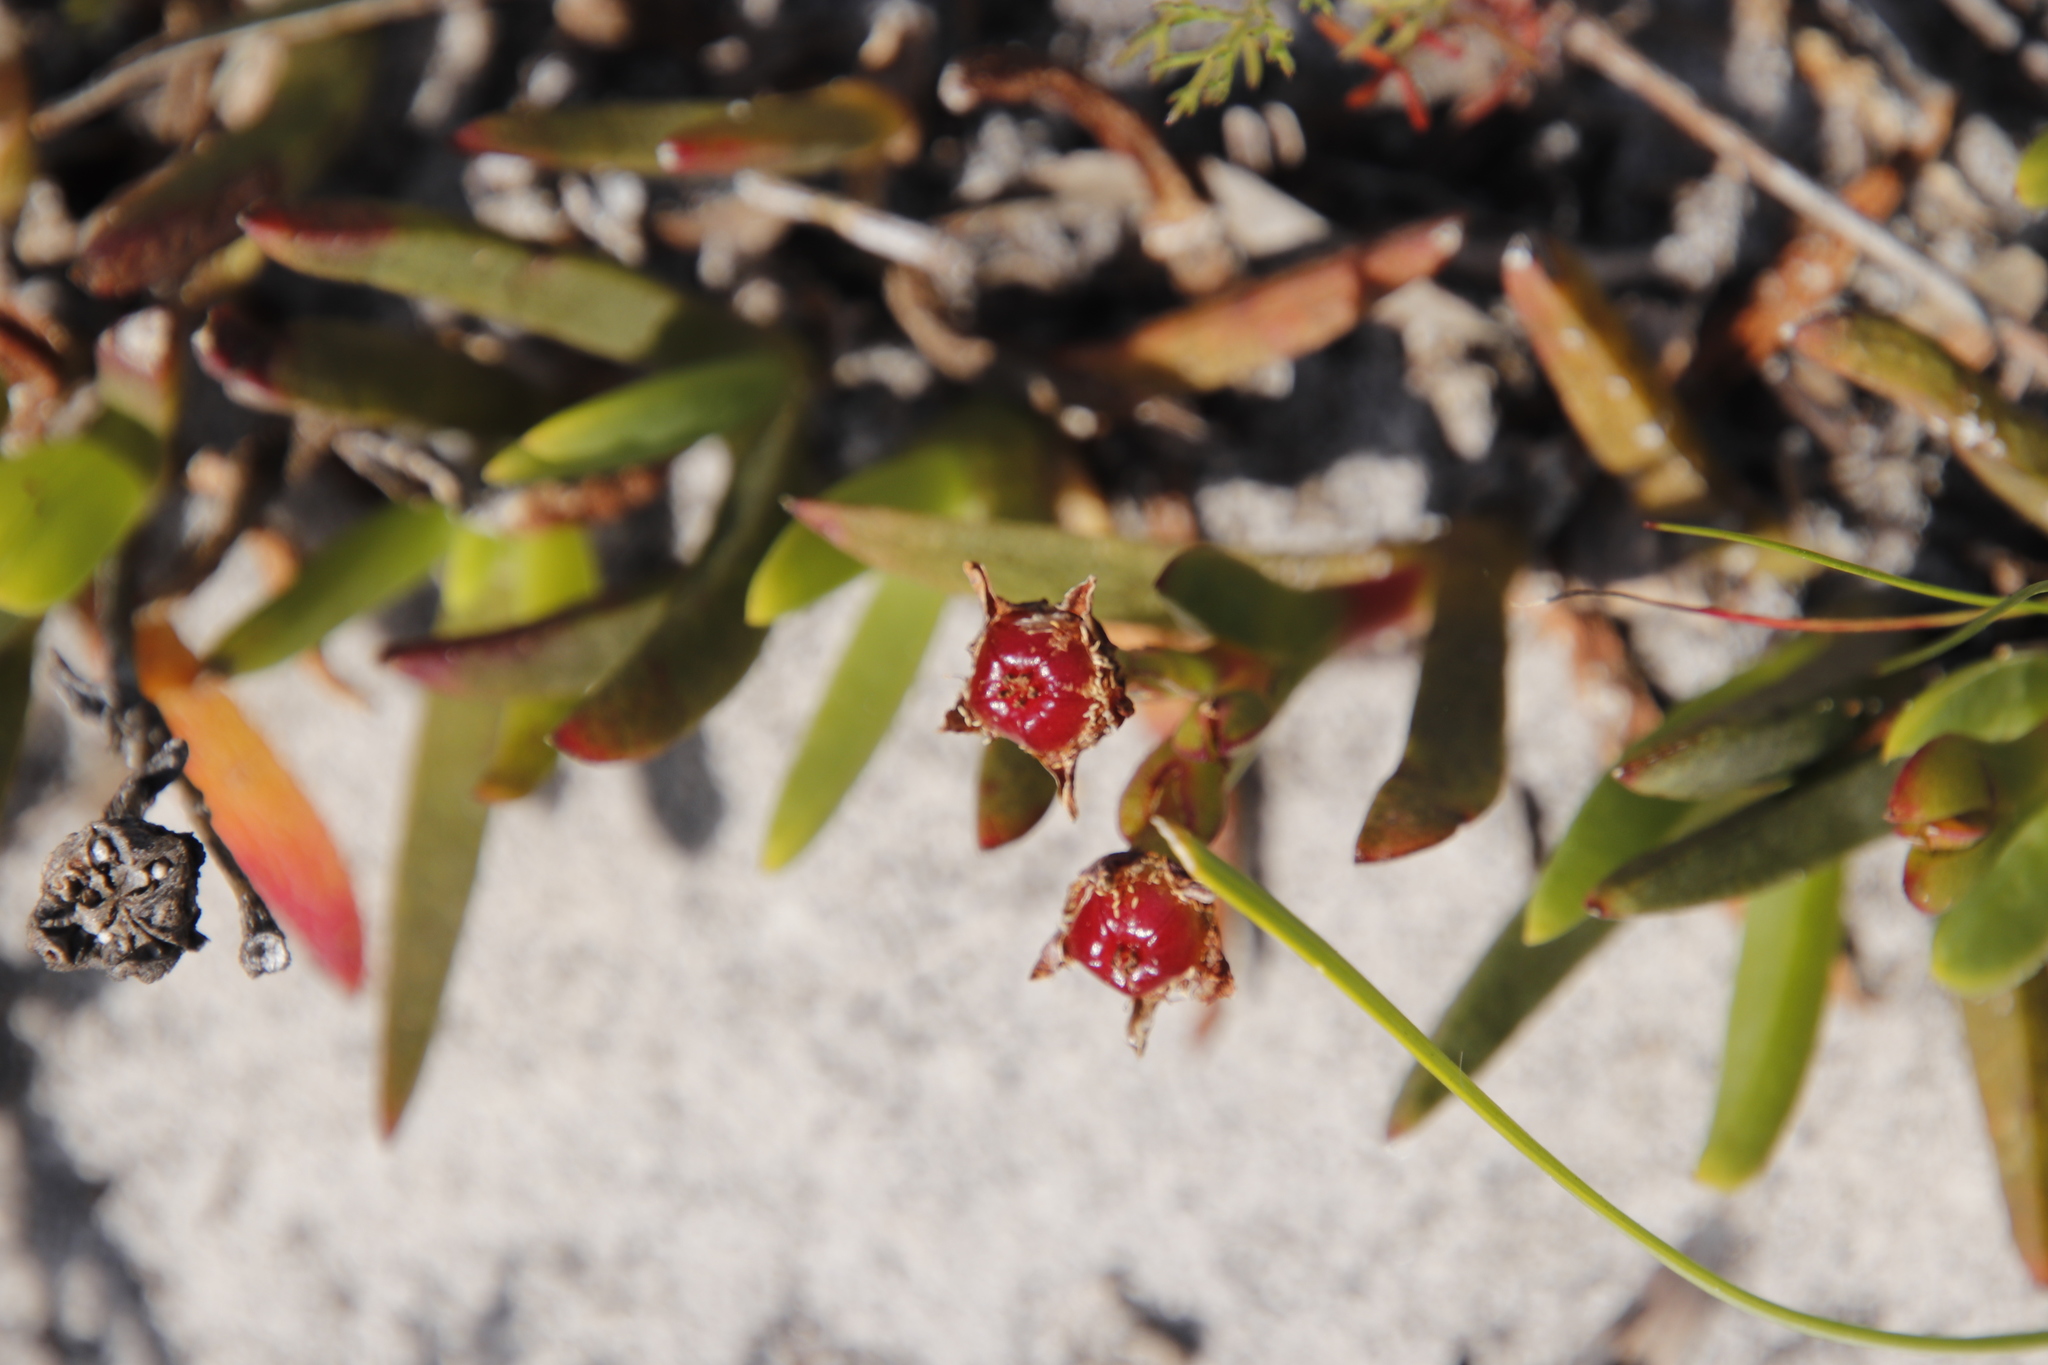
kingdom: Plantae
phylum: Tracheophyta
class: Magnoliopsida
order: Caryophyllales
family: Aizoaceae
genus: Ruschia
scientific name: Ruschia sarmentosa
